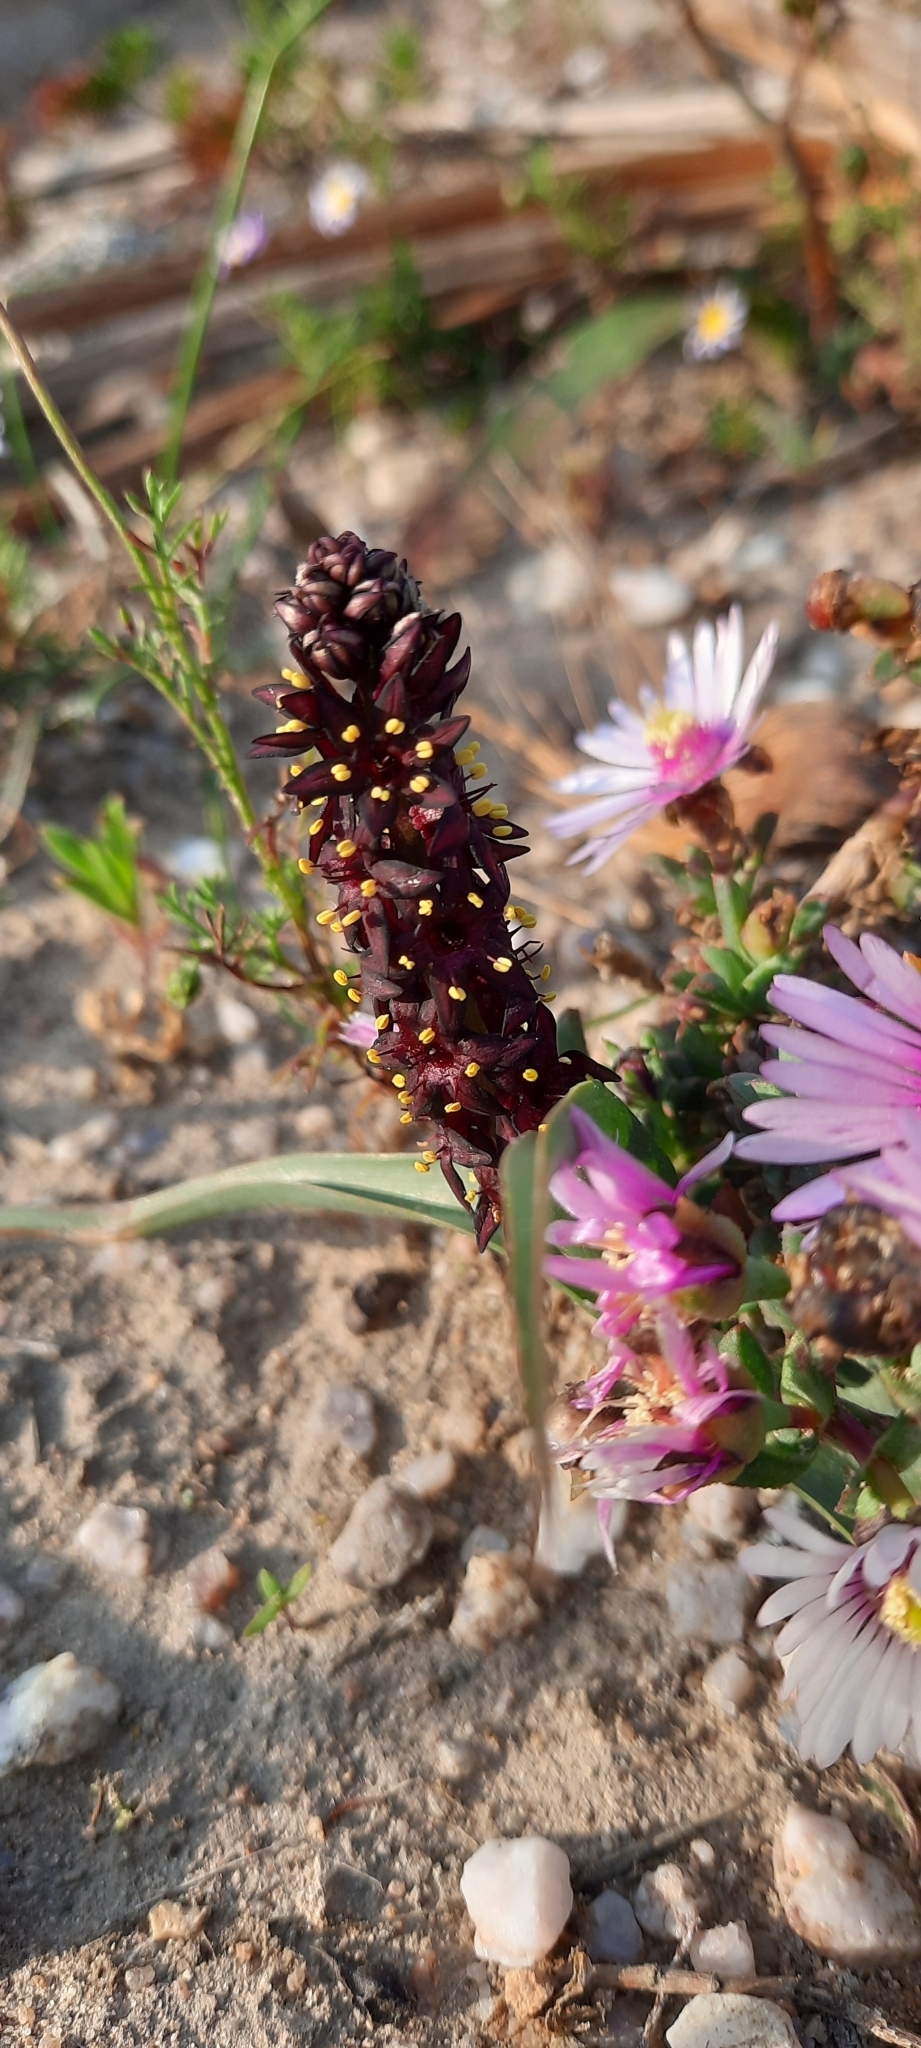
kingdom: Plantae
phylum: Tracheophyta
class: Liliopsida
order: Liliales
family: Colchicaceae
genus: Wurmbea
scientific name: Wurmbea recurva
